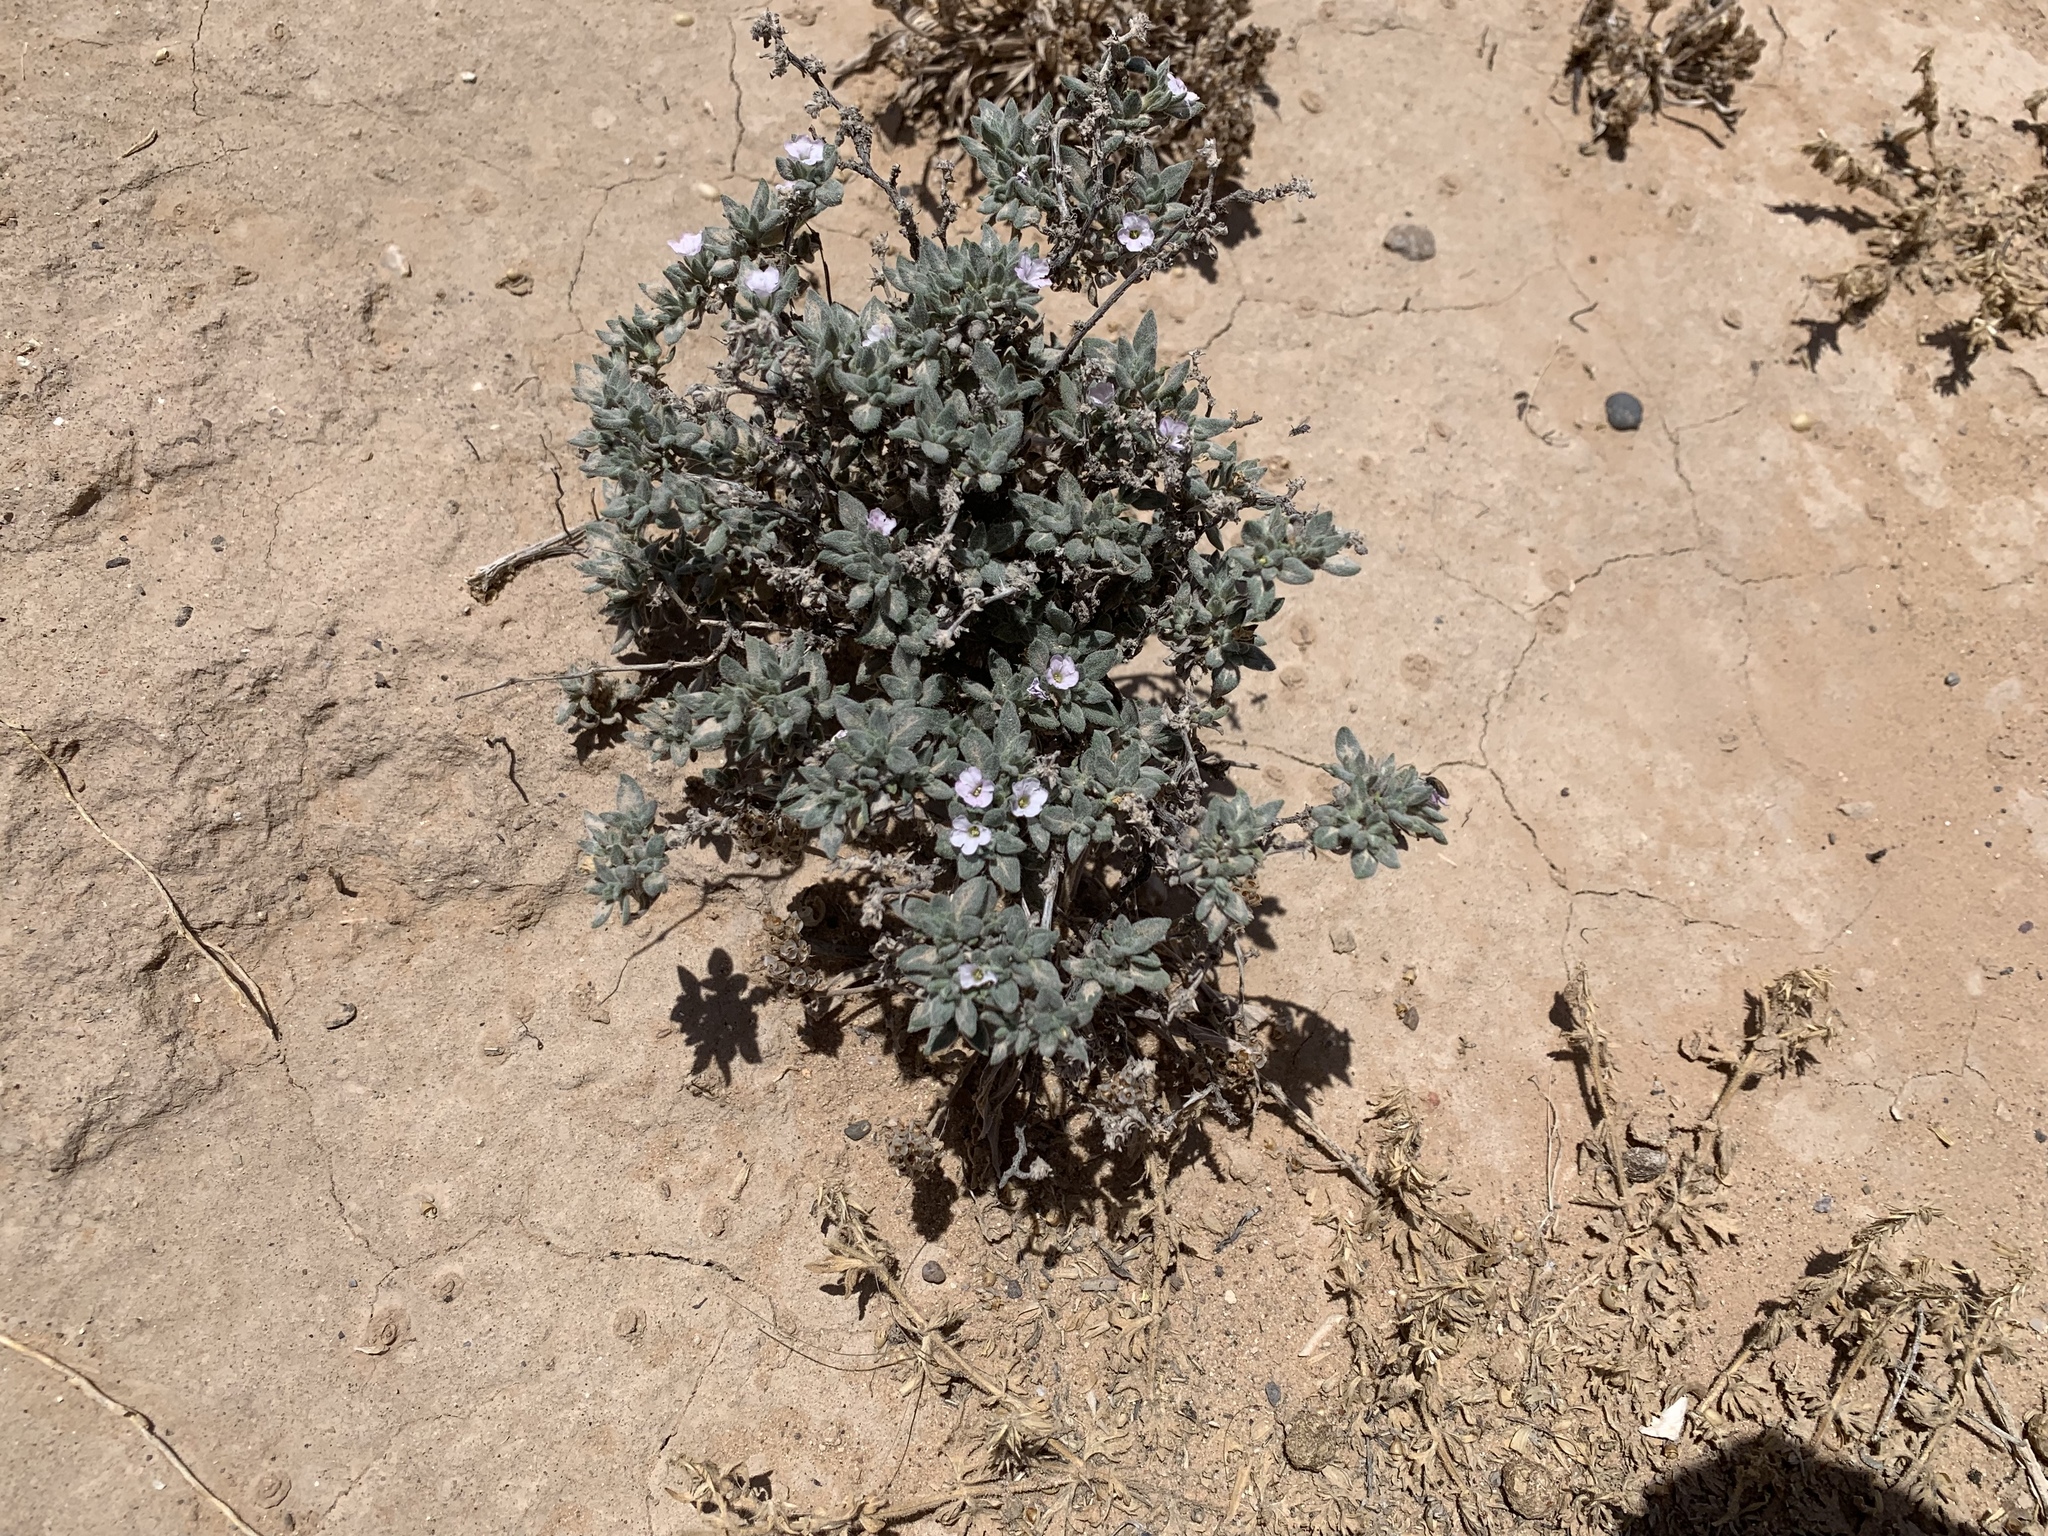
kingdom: Plantae
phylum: Tracheophyta
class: Magnoliopsida
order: Boraginales
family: Ehretiaceae
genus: Tiquilia
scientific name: Tiquilia canescens
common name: Hairy tiquilia
